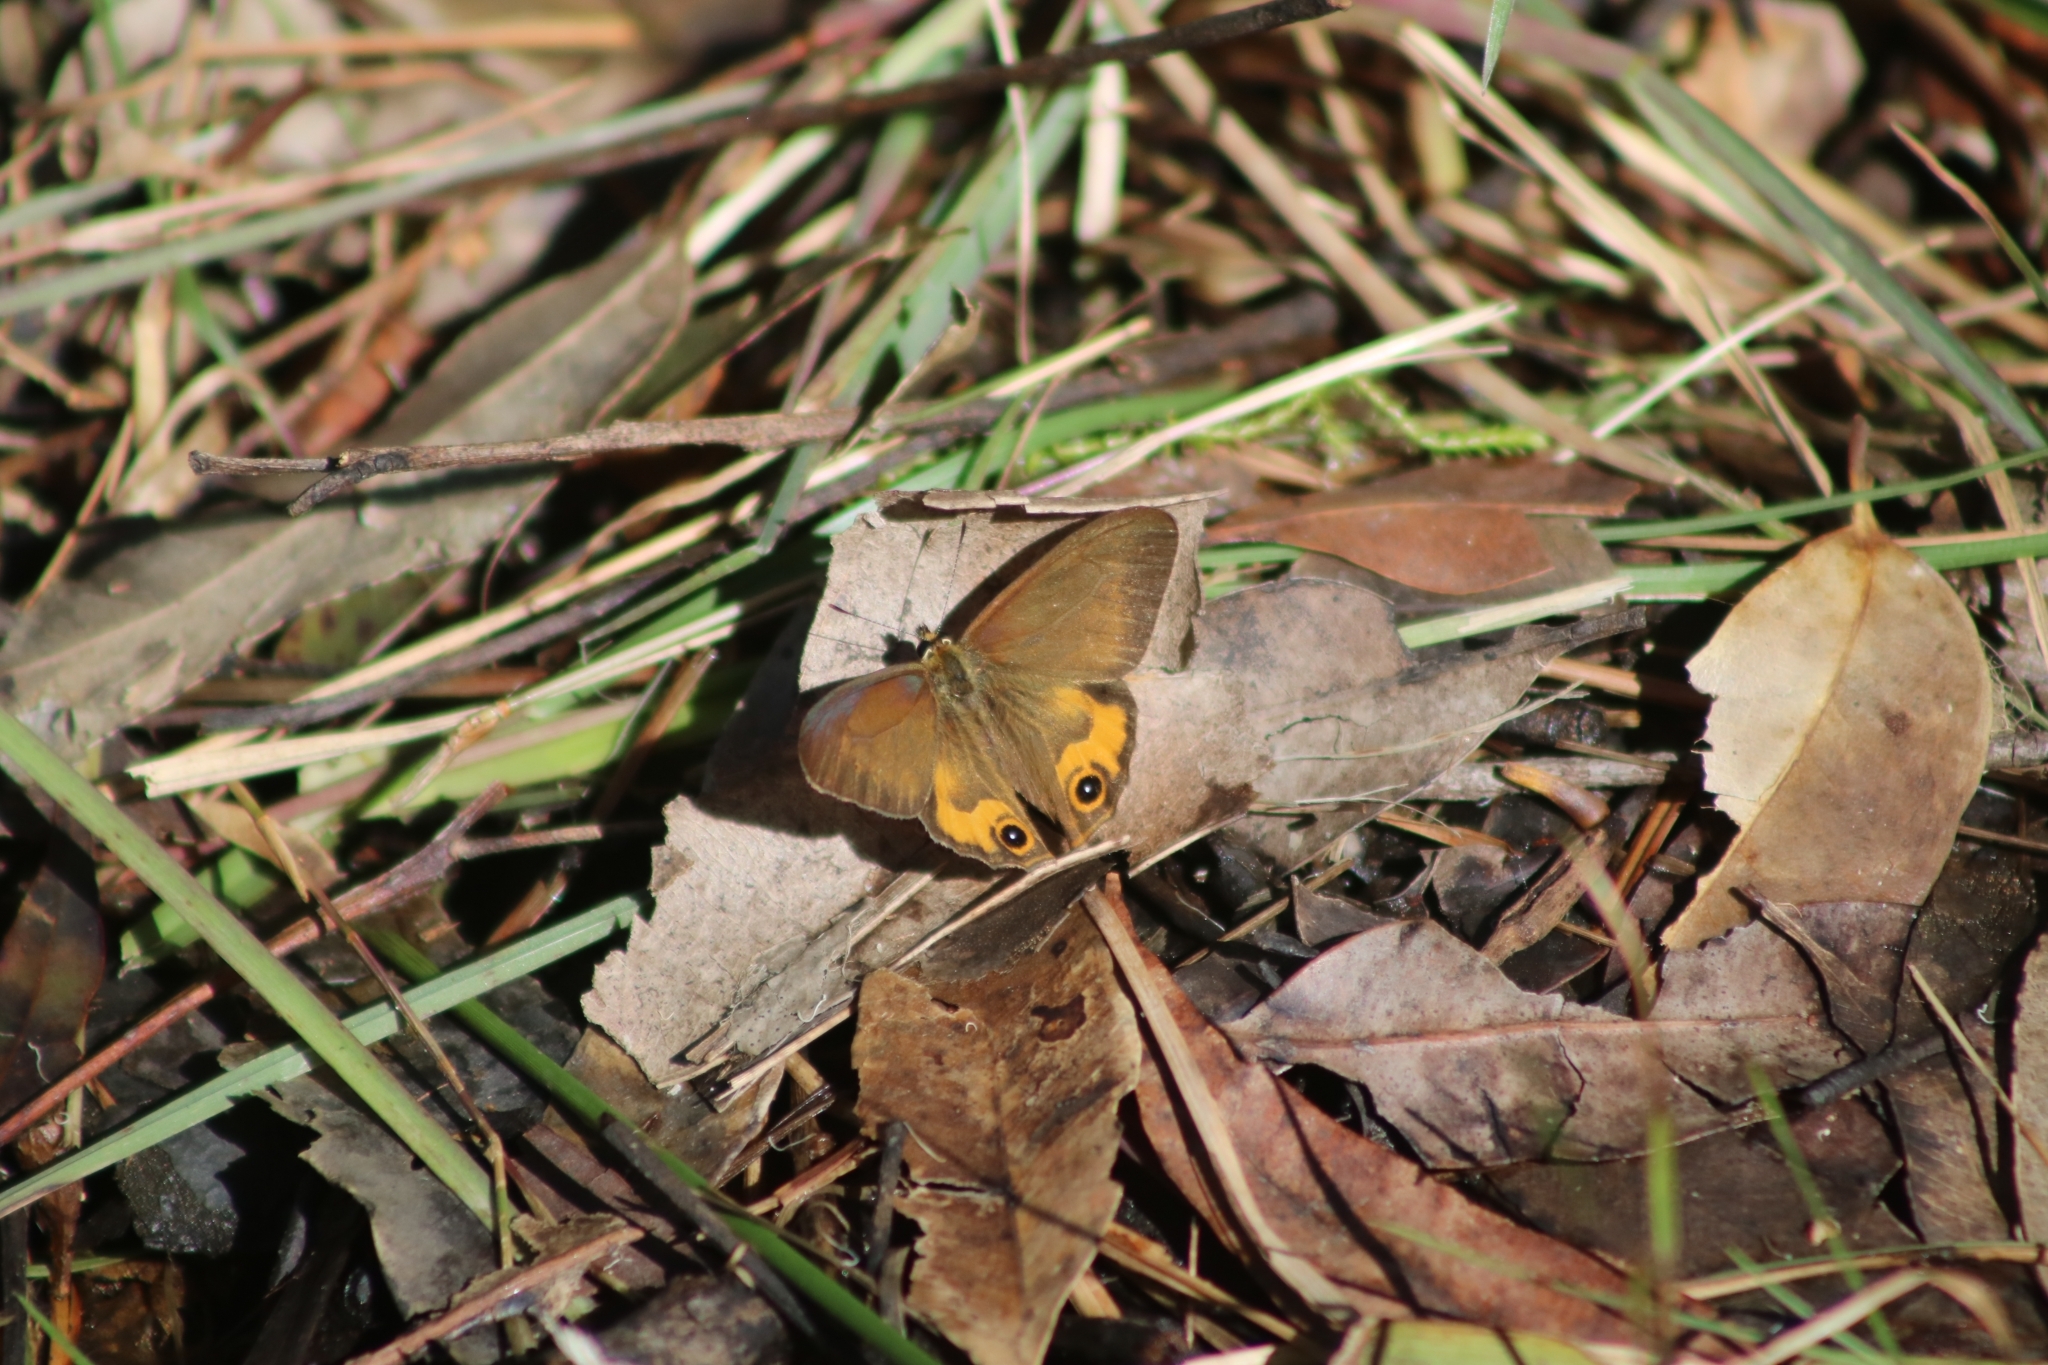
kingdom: Animalia
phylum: Arthropoda
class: Insecta
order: Lepidoptera
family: Nymphalidae
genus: Hypocysta
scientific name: Hypocysta metirius
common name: Brown ringlet
